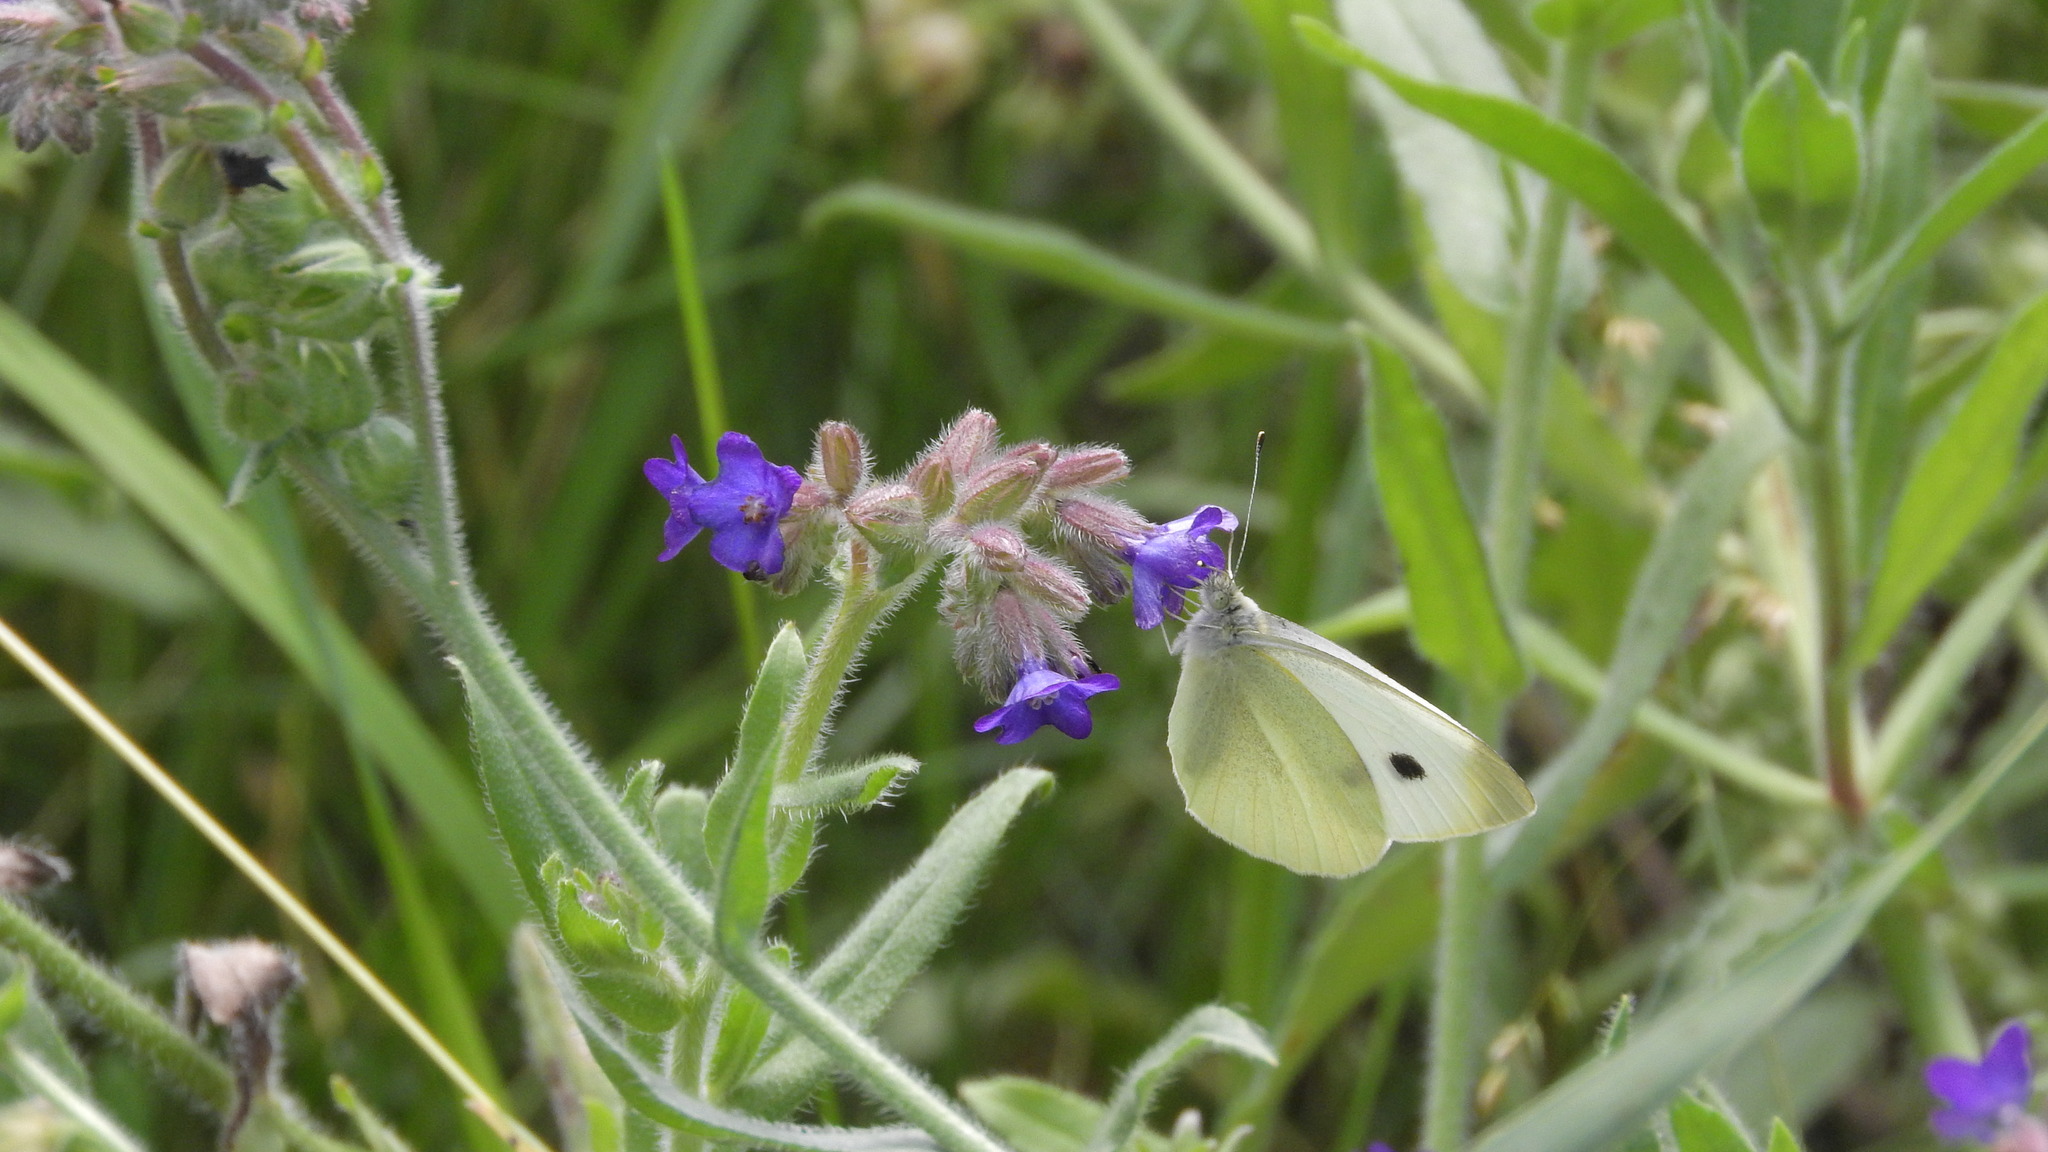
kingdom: Animalia
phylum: Arthropoda
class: Insecta
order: Lepidoptera
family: Pieridae
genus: Pieris
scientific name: Pieris rapae
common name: Small white
